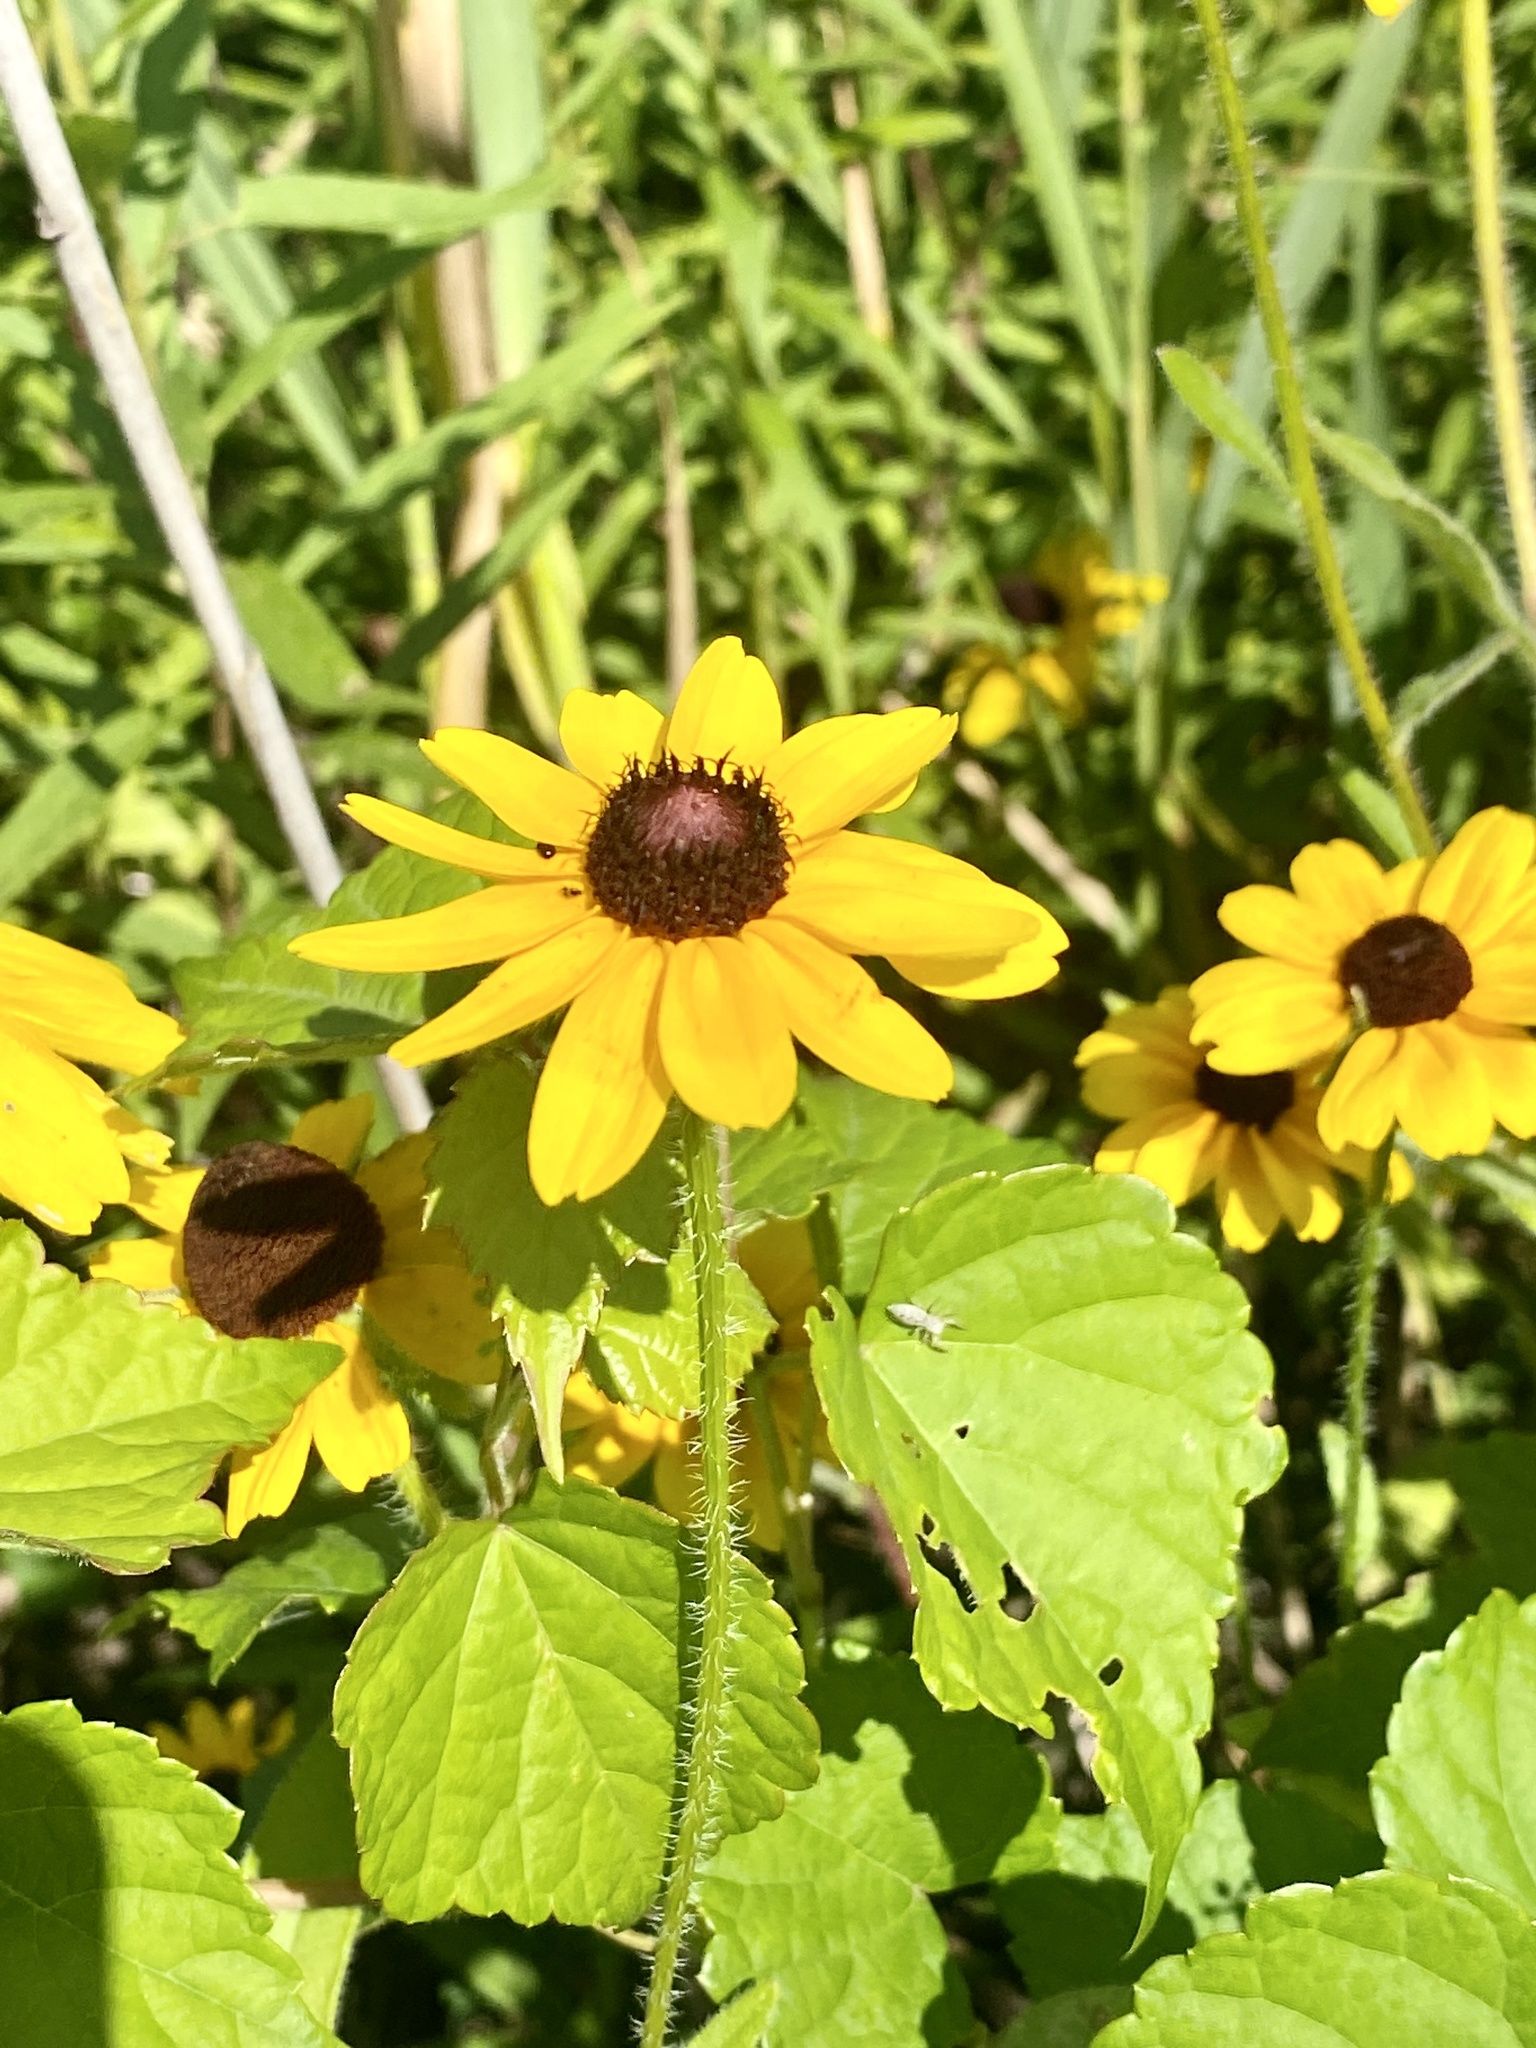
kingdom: Plantae
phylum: Tracheophyta
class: Magnoliopsida
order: Asterales
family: Asteraceae
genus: Rudbeckia
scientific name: Rudbeckia hirta
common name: Black-eyed-susan
